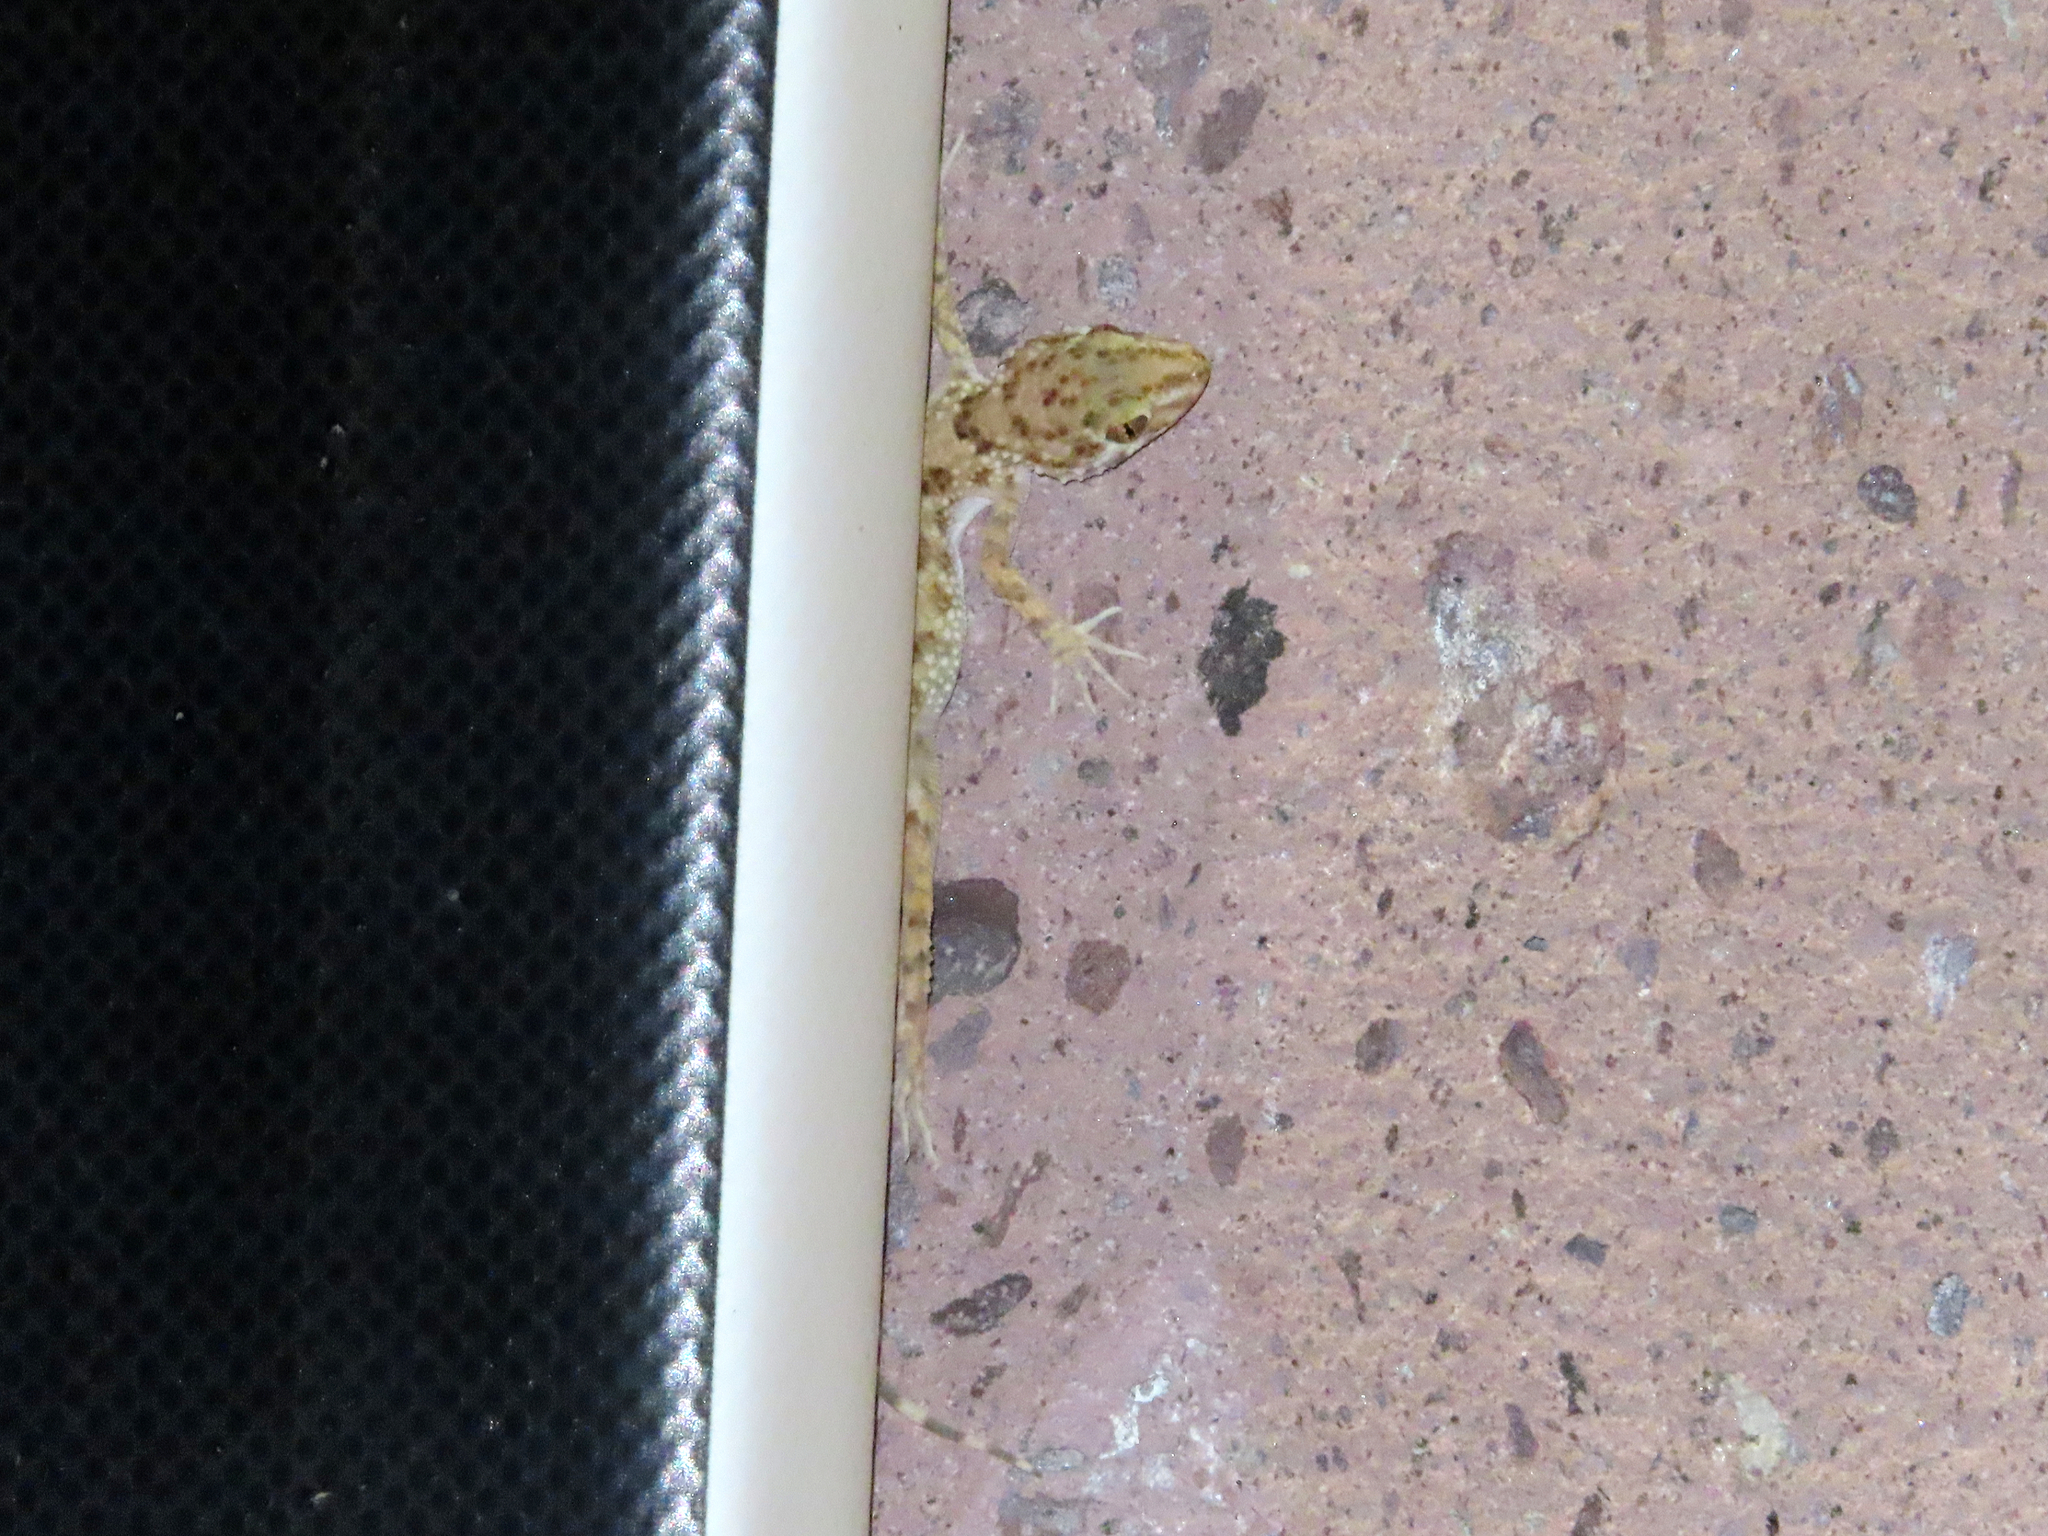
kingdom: Animalia
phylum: Chordata
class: Squamata
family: Gekkonidae
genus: Tenuidactylus
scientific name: Tenuidactylus caspius
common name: Caspian bent-toed gecko
